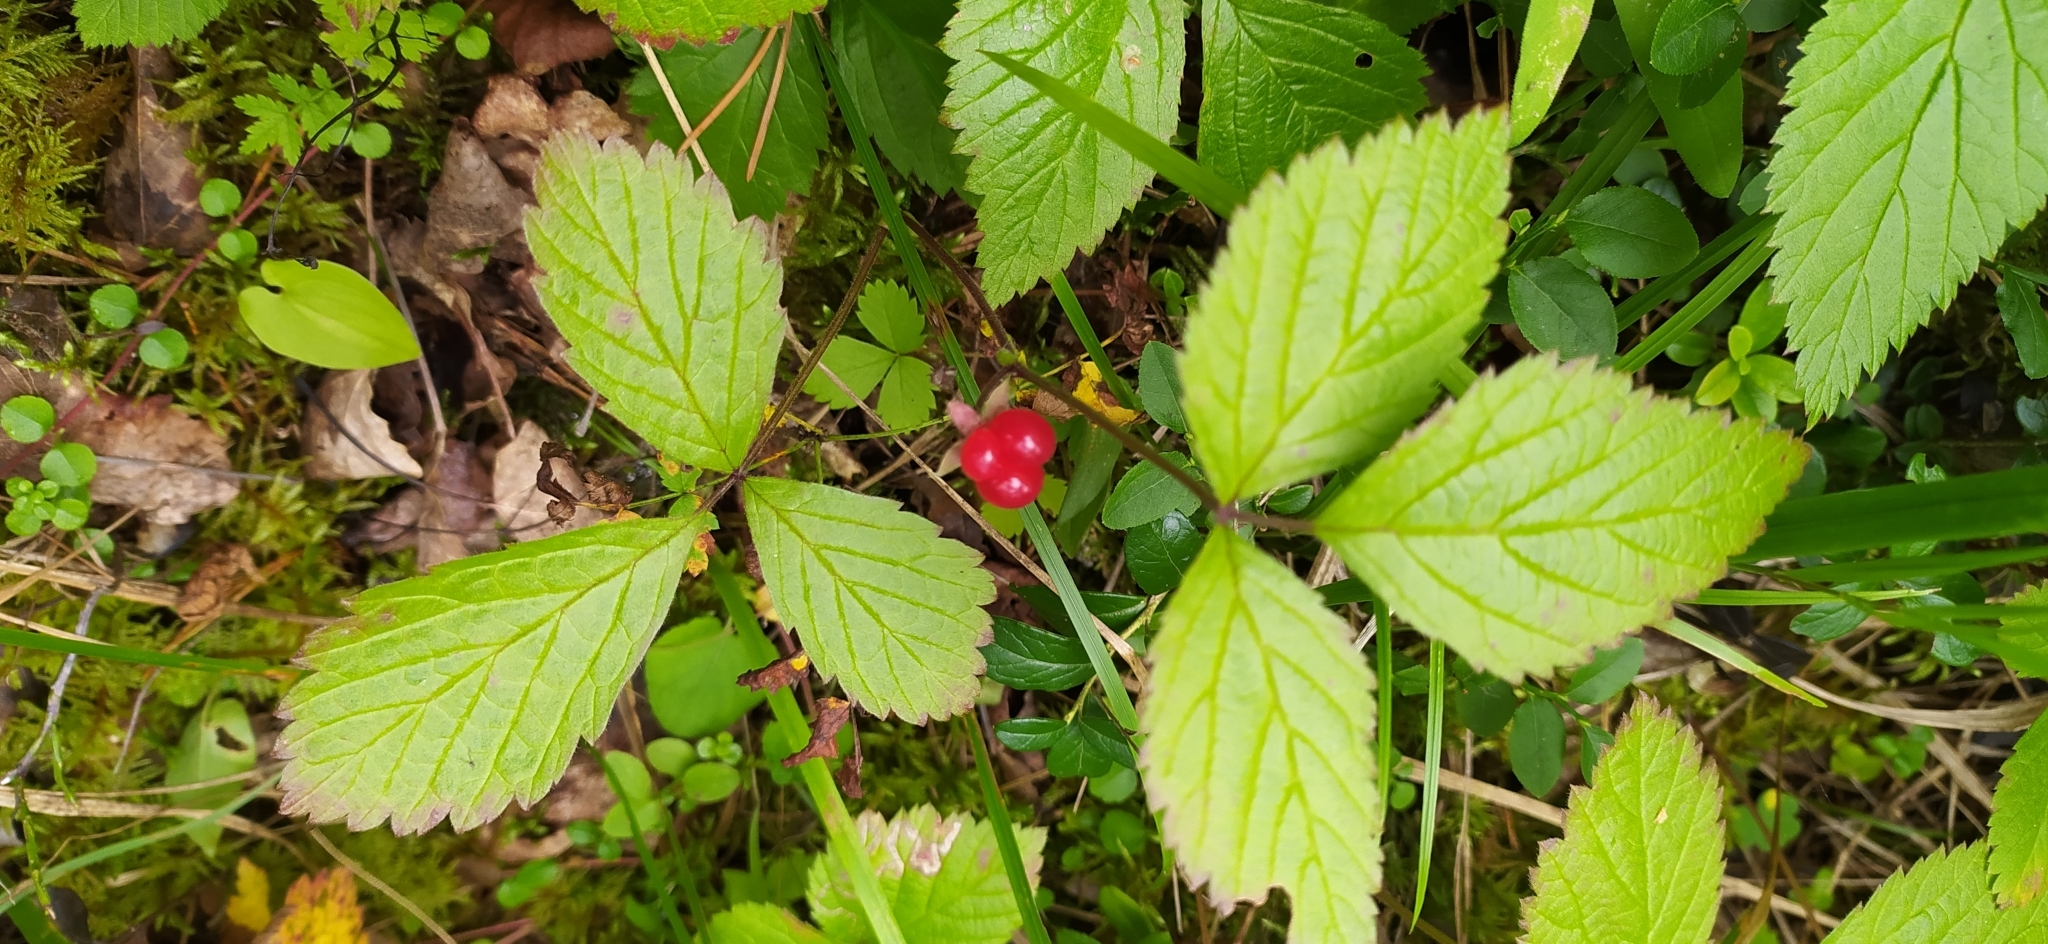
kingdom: Plantae
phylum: Tracheophyta
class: Magnoliopsida
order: Rosales
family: Rosaceae
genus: Rubus
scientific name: Rubus saxatilis
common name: Stone bramble
